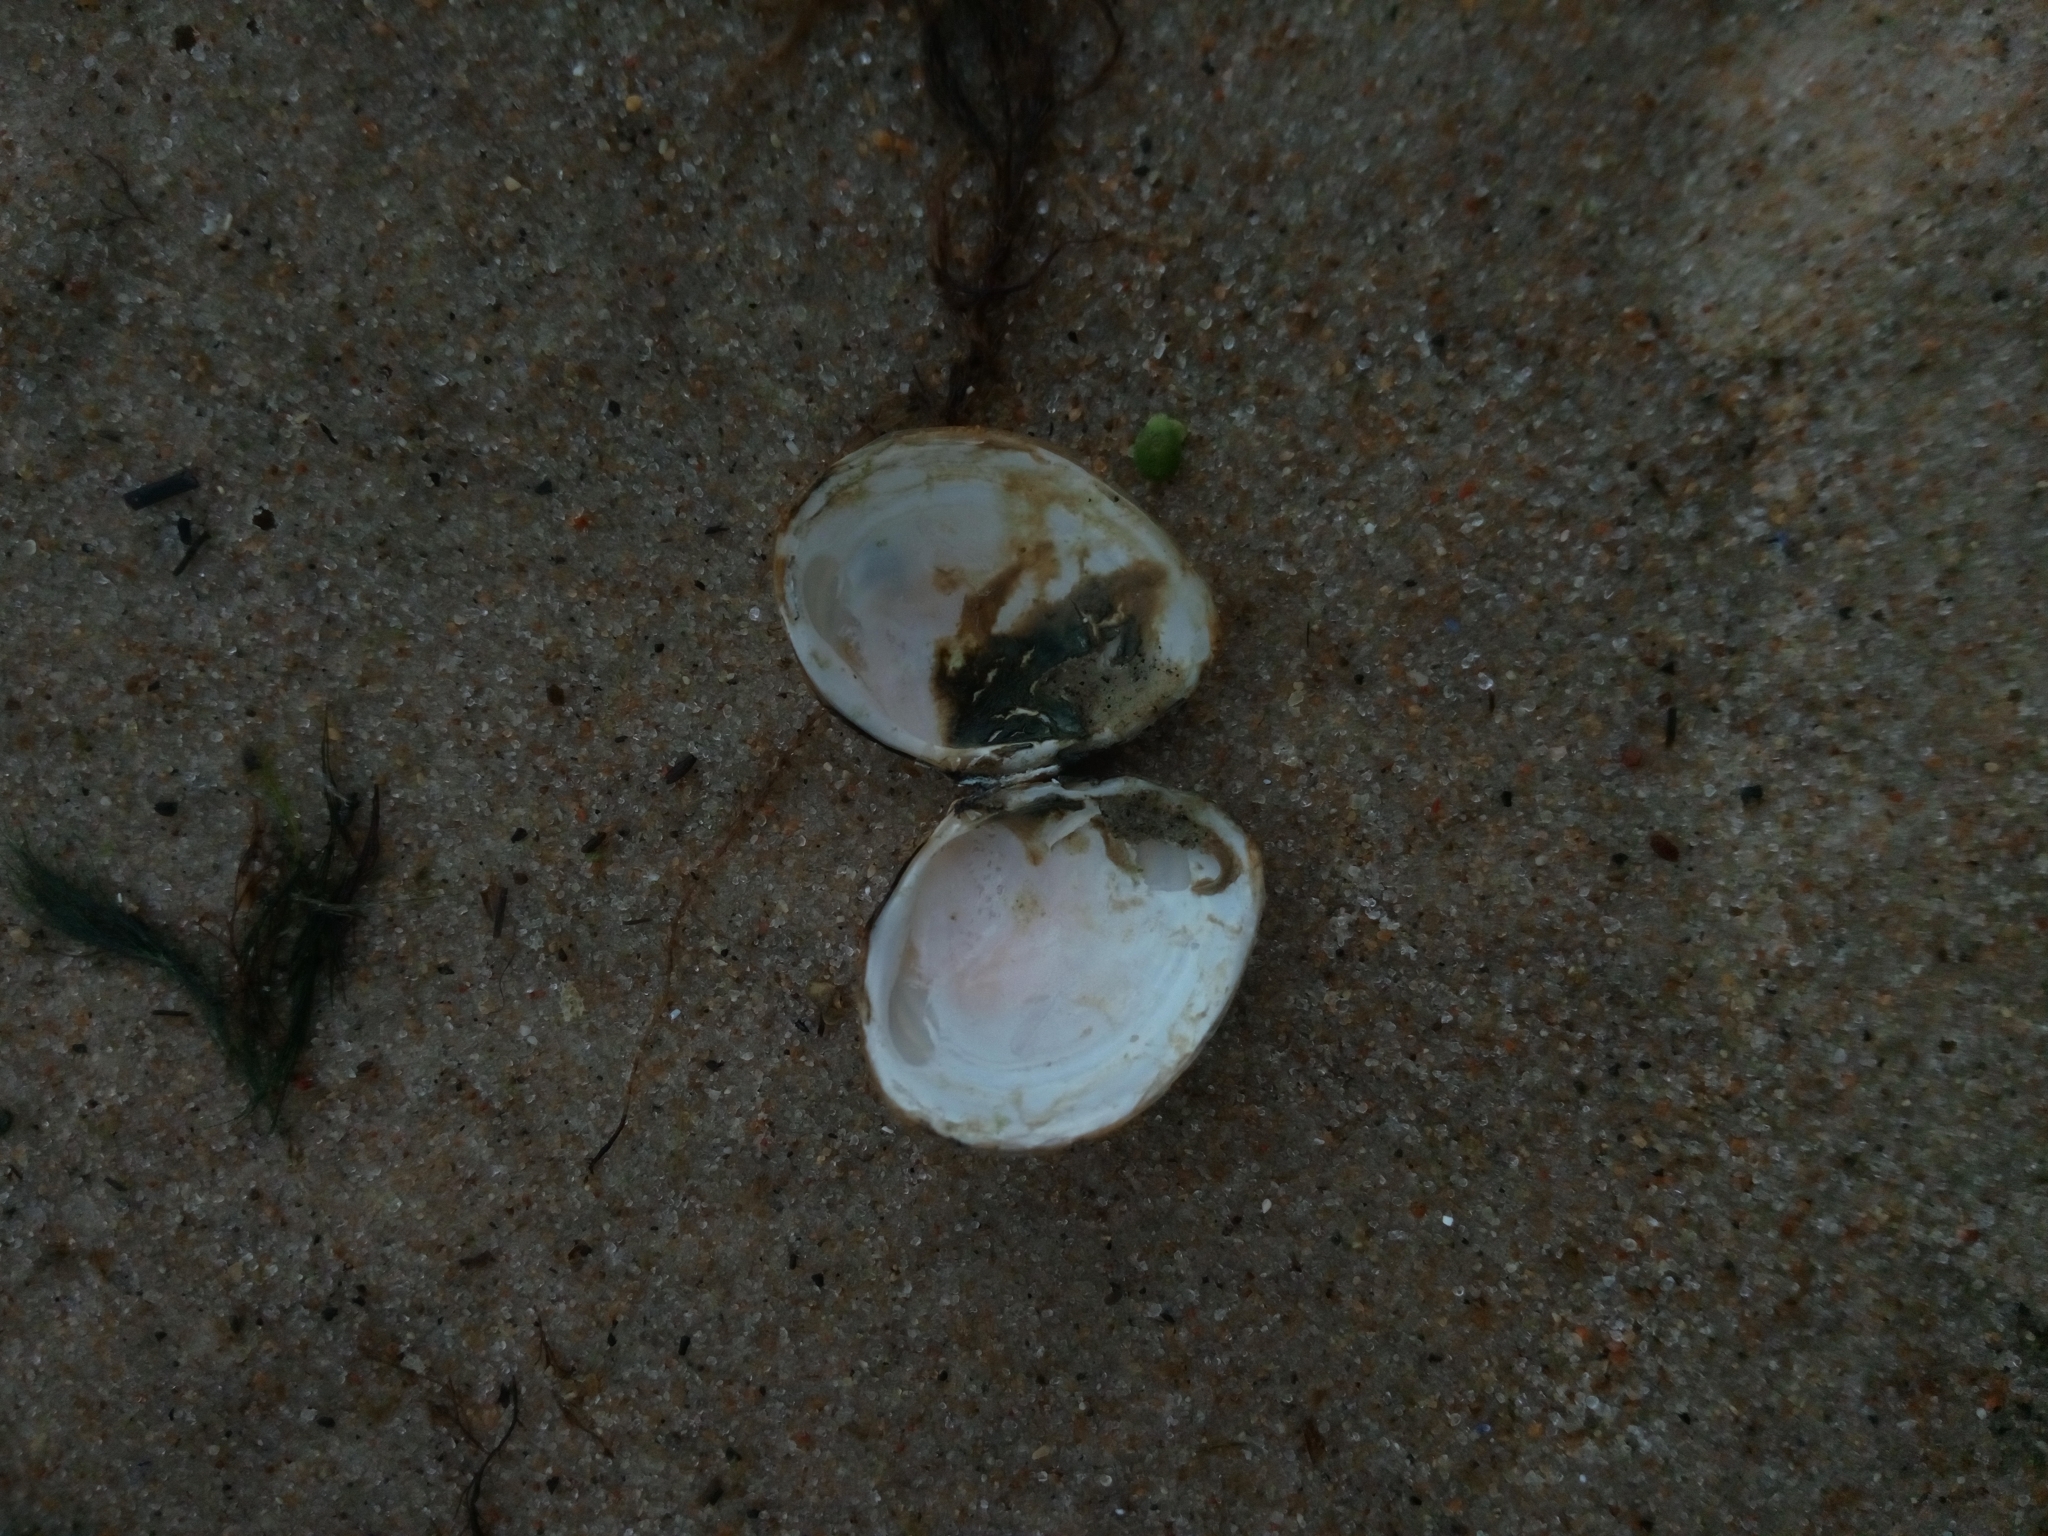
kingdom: Animalia
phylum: Mollusca
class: Bivalvia
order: Cardiida
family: Tellinidae
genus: Macoma
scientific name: Macoma balthica
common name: Baltic tellin
